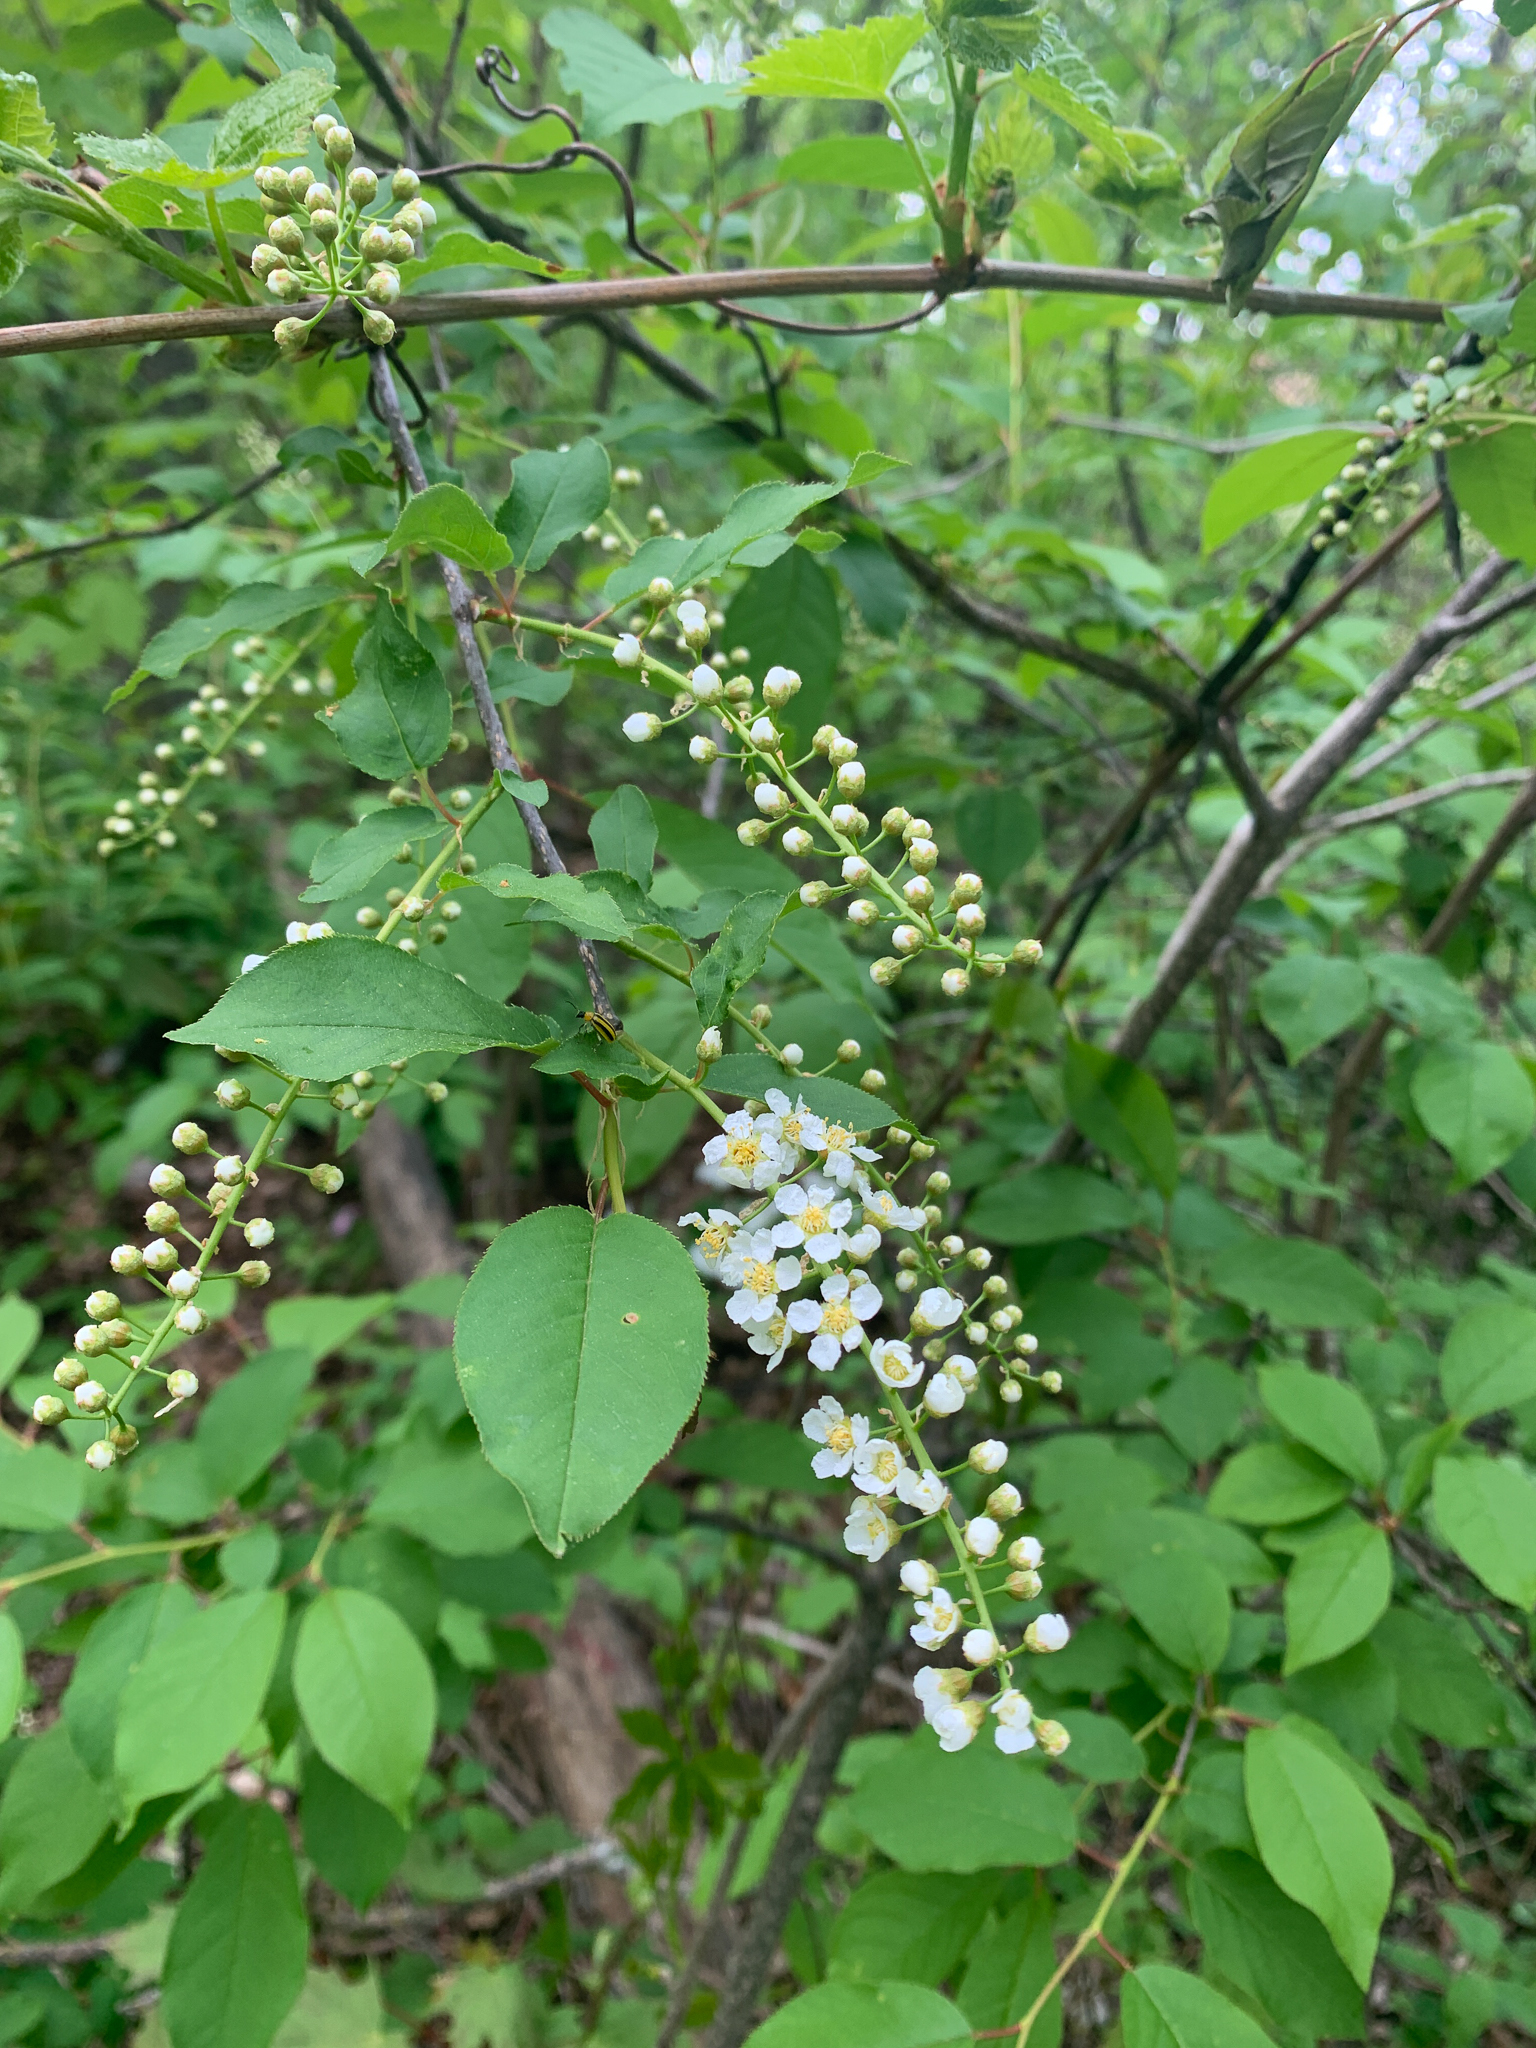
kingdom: Plantae
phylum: Tracheophyta
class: Magnoliopsida
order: Rosales
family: Rosaceae
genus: Prunus
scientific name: Prunus virginiana
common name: Chokecherry
